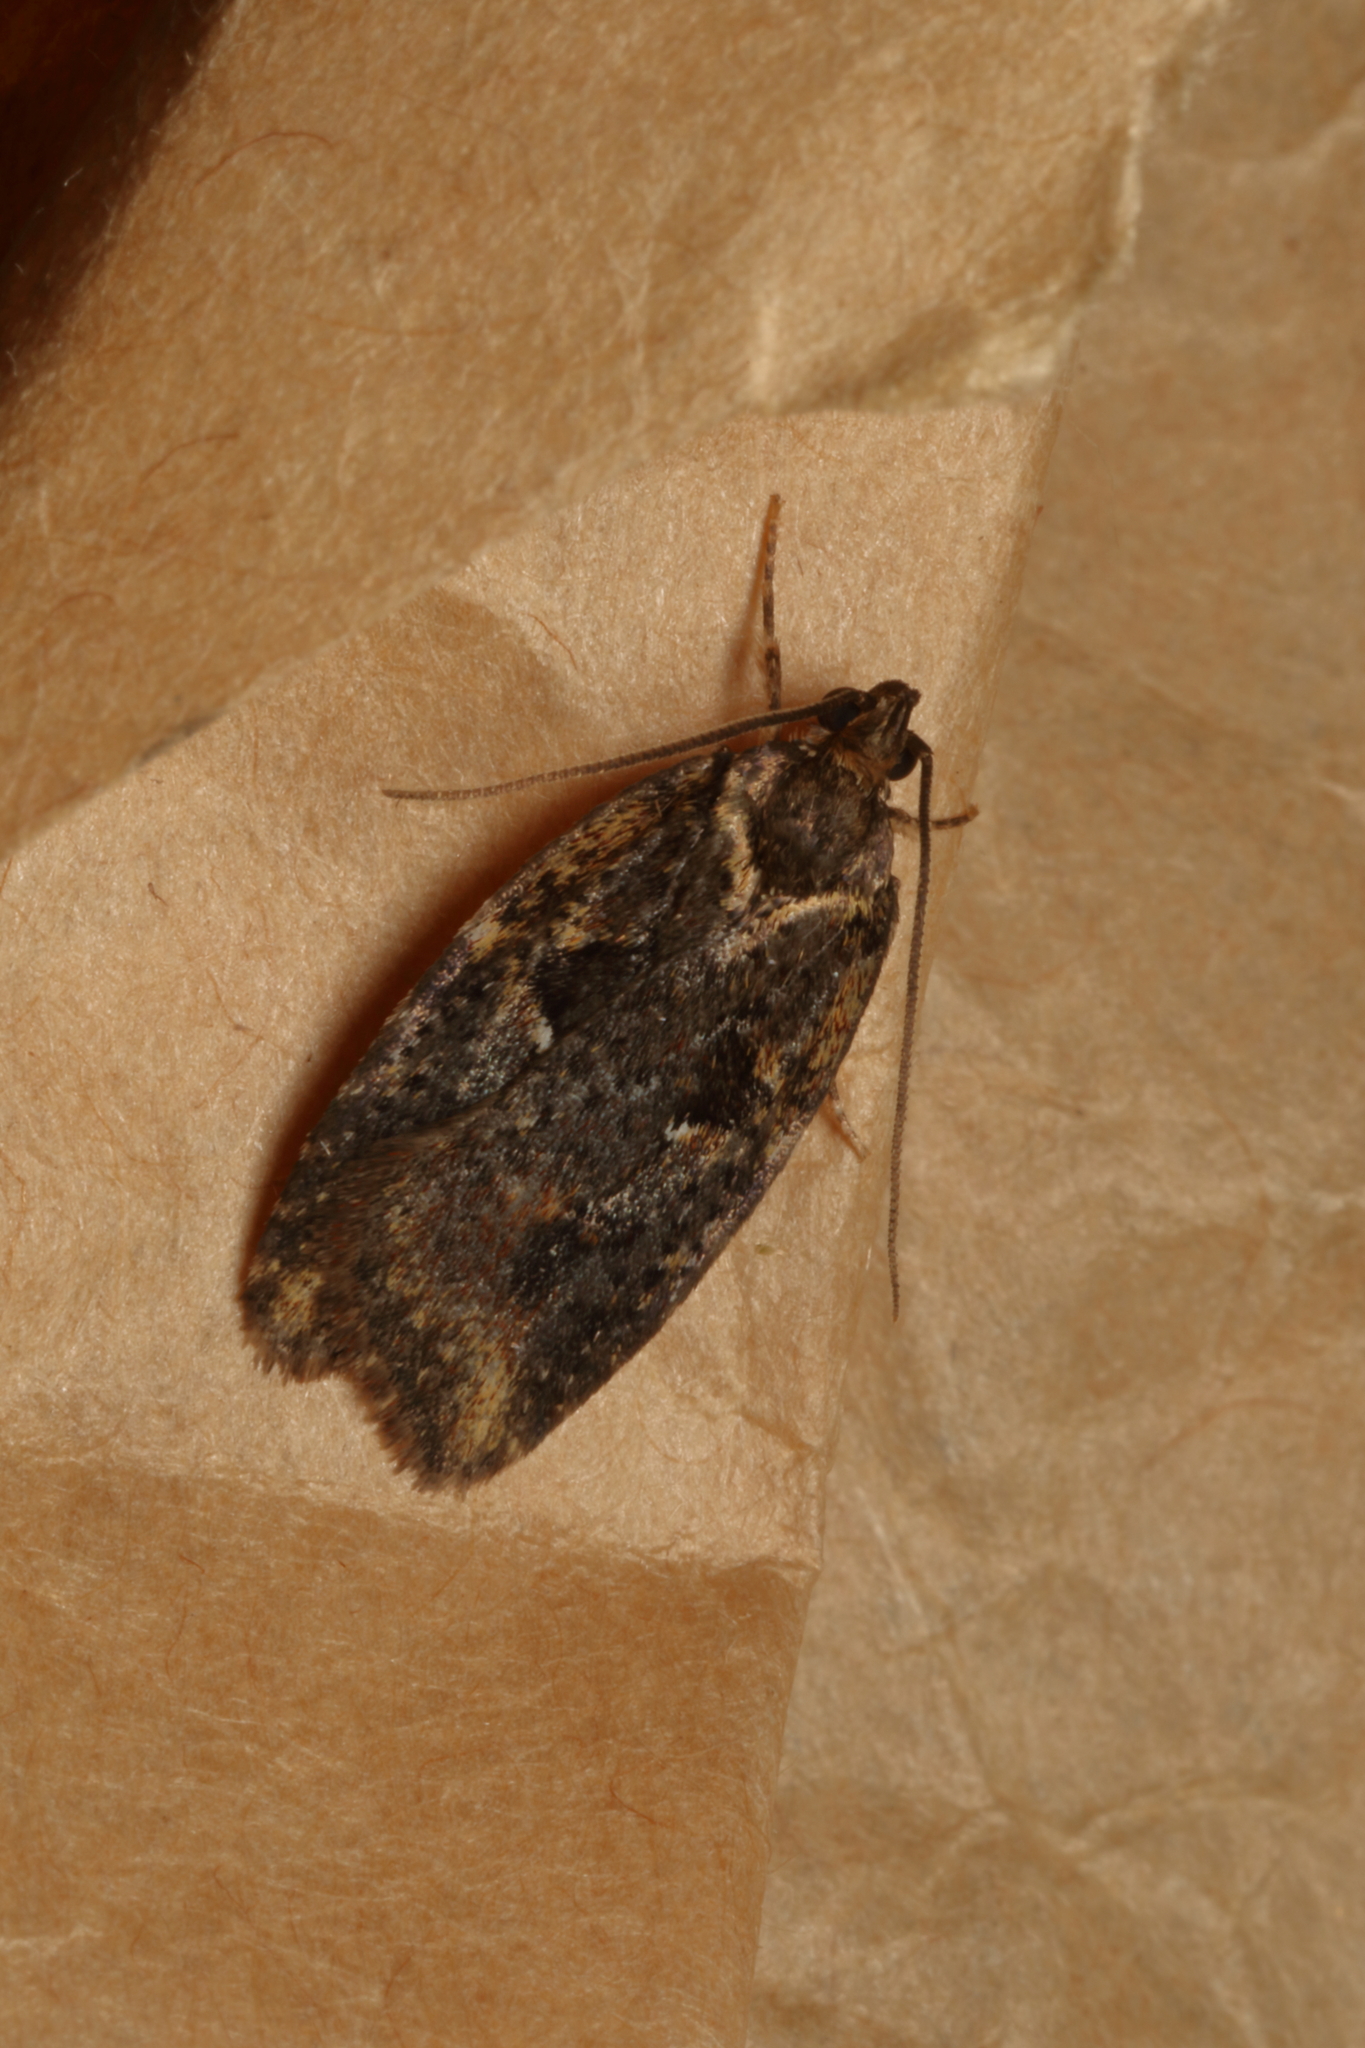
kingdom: Animalia
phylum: Arthropoda
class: Insecta
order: Lepidoptera
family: Oecophoridae
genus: Proteodes
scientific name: Proteodes profunda
